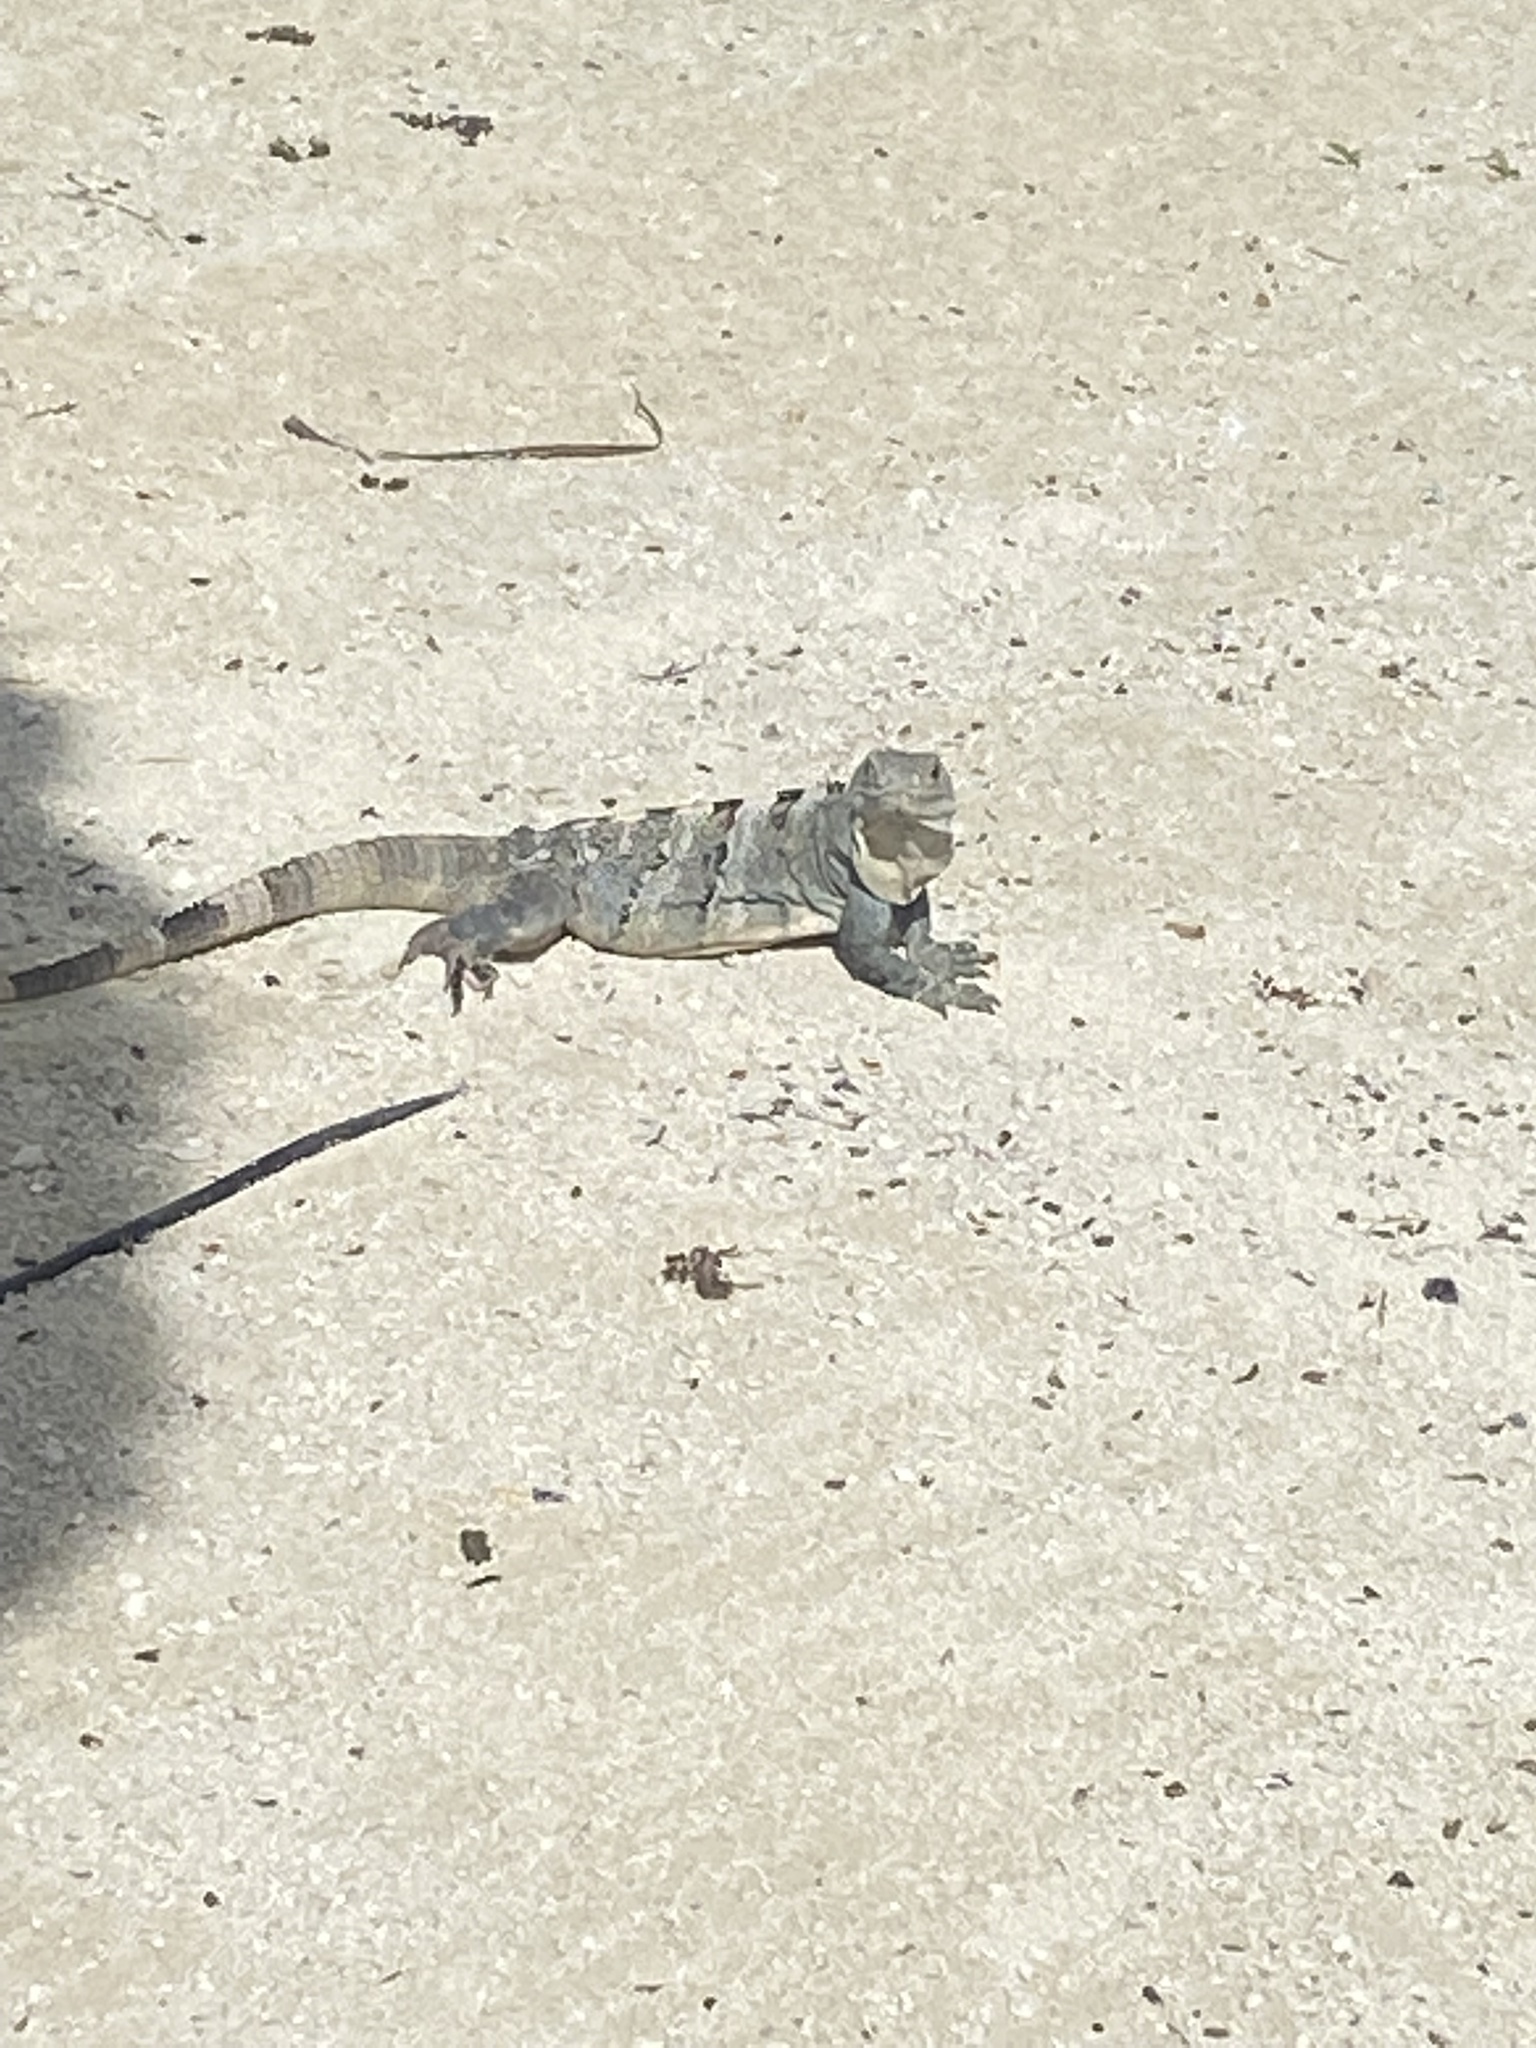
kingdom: Animalia
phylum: Chordata
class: Squamata
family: Iguanidae
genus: Ctenosaura
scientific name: Ctenosaura similis
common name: Black spiny-tailed iguana
